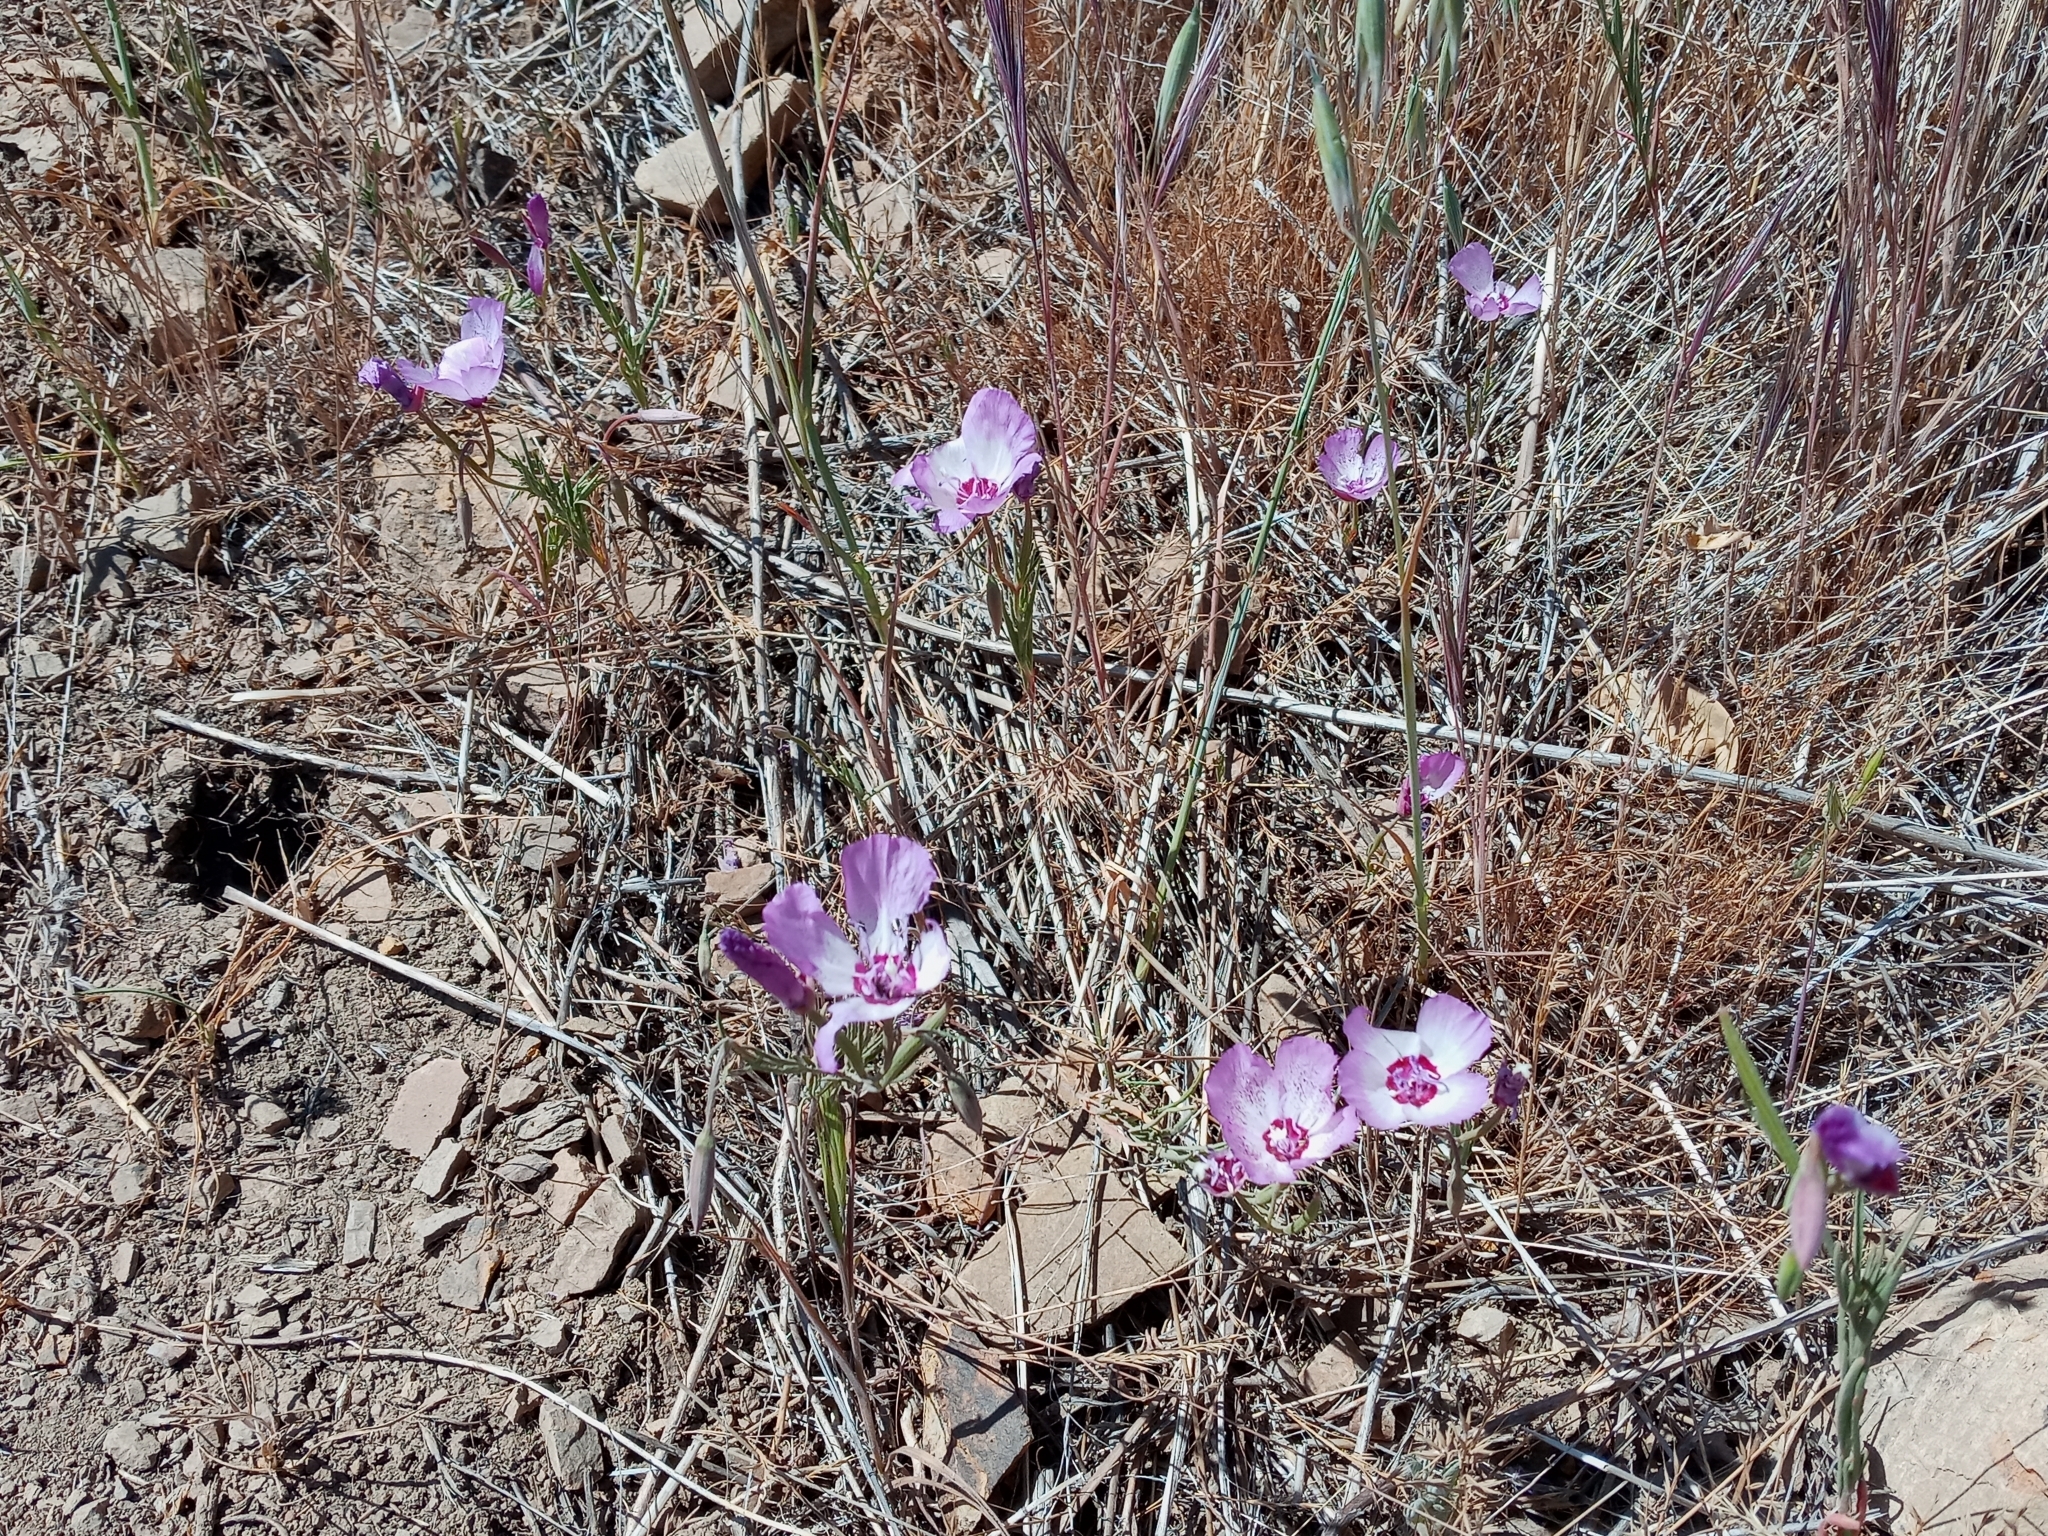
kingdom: Plantae
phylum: Tracheophyta
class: Magnoliopsida
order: Myrtales
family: Onagraceae
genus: Clarkia
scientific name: Clarkia cylindrica
